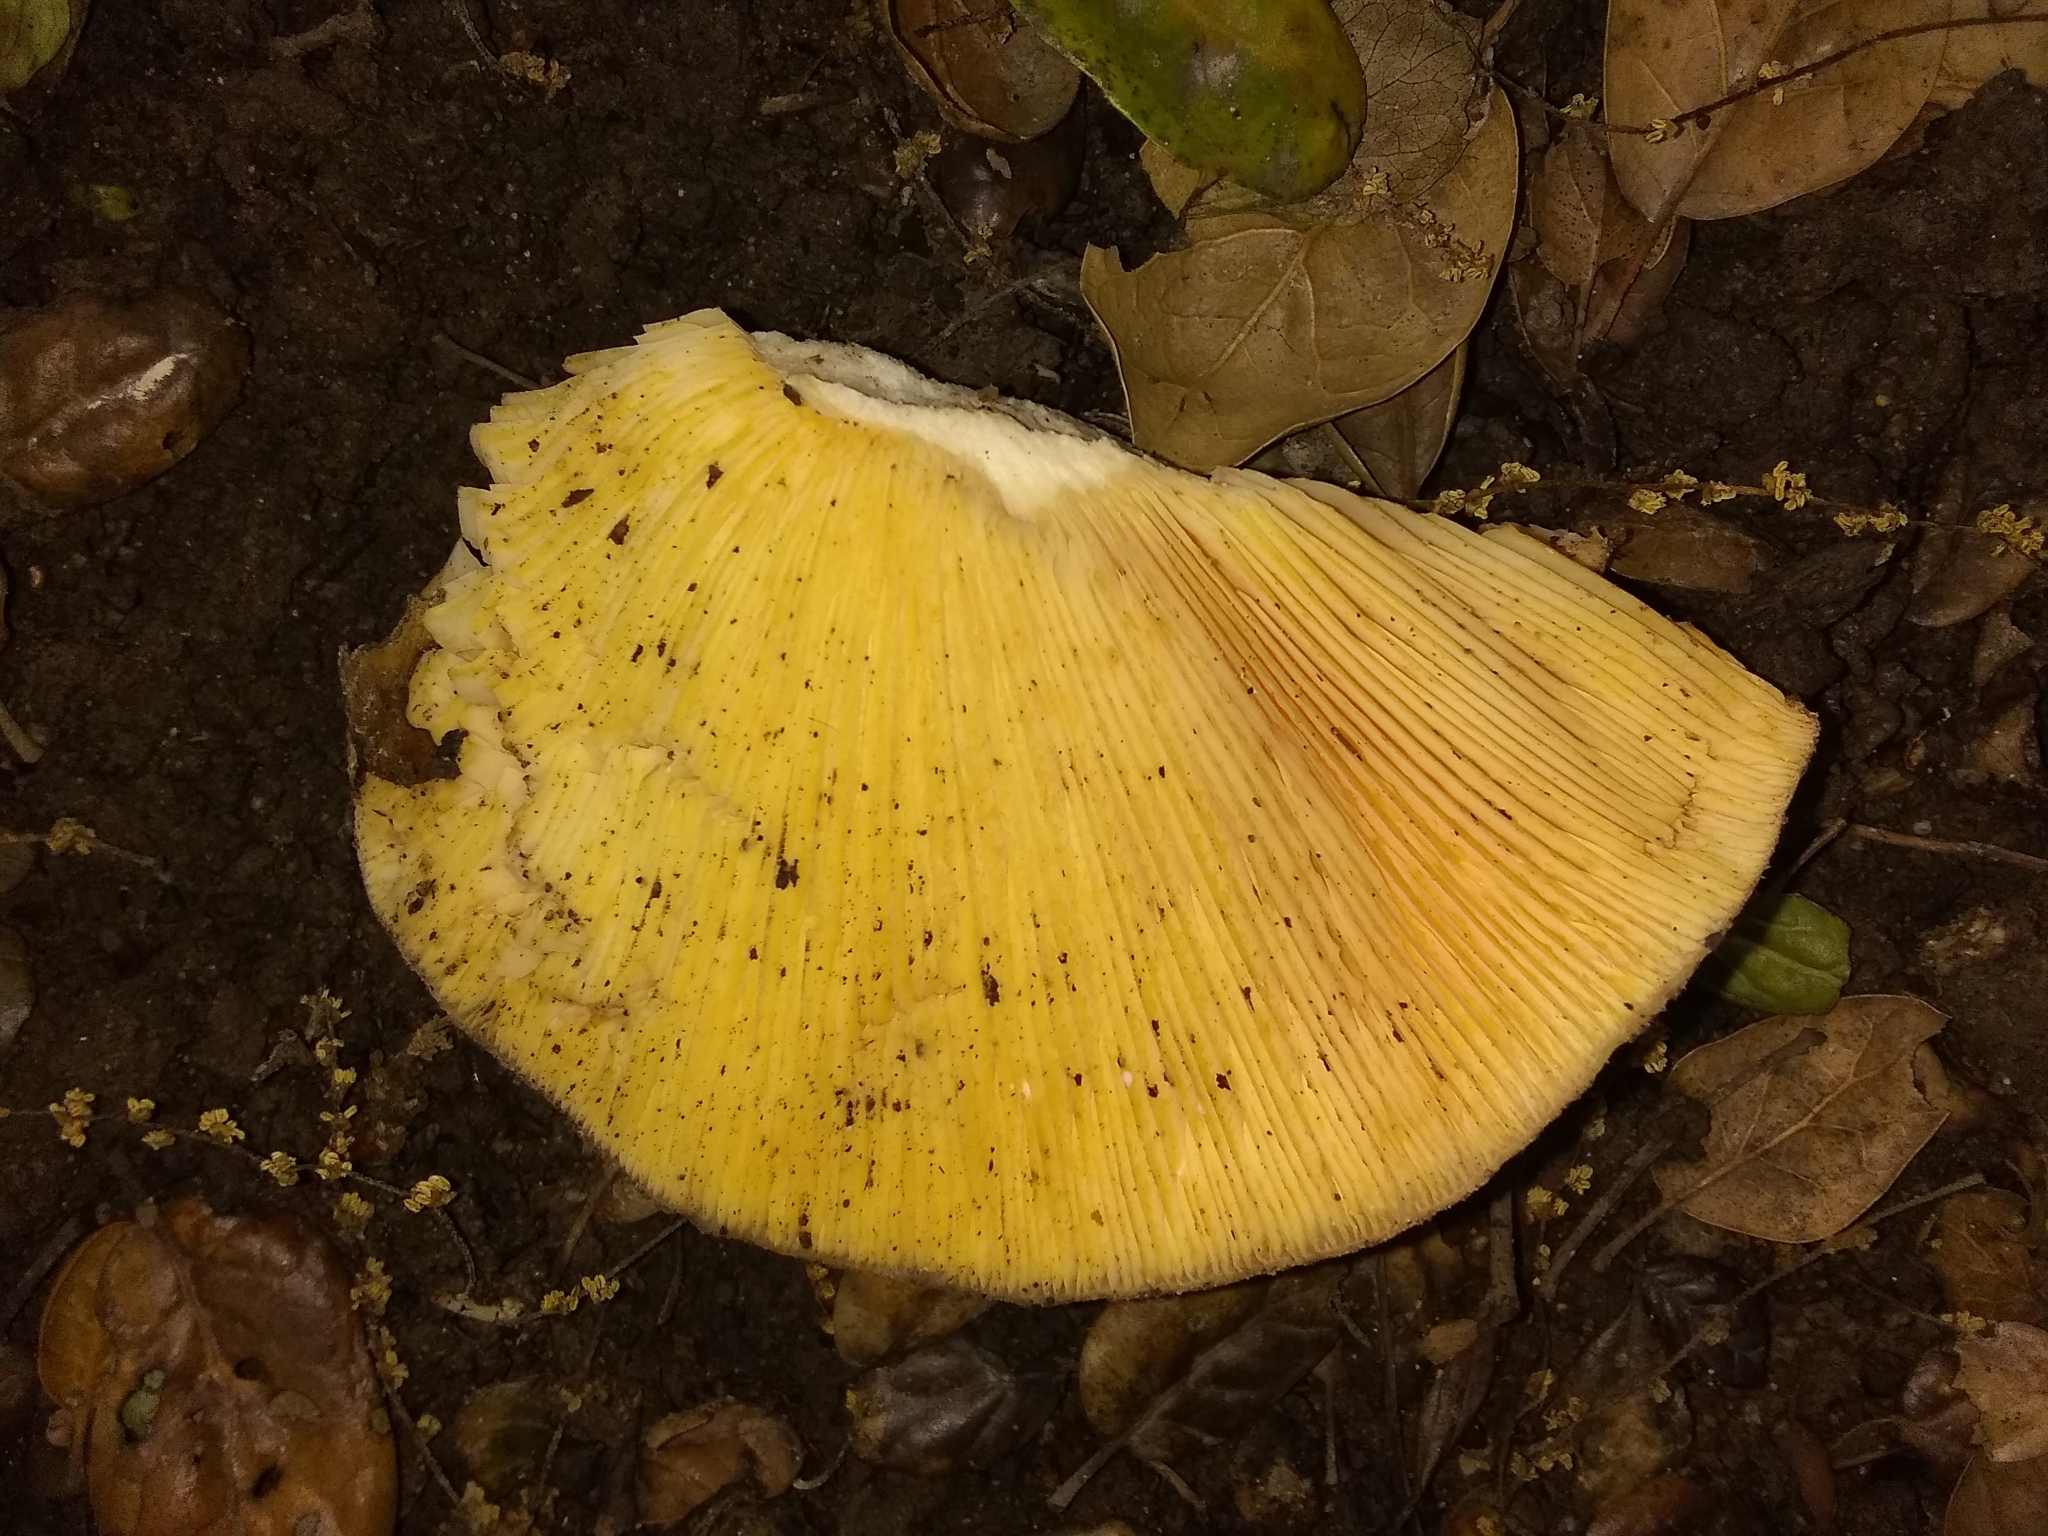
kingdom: Fungi
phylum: Basidiomycota
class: Agaricomycetes
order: Russulales
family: Russulaceae
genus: Lactarius
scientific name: Lactarius alnicola
